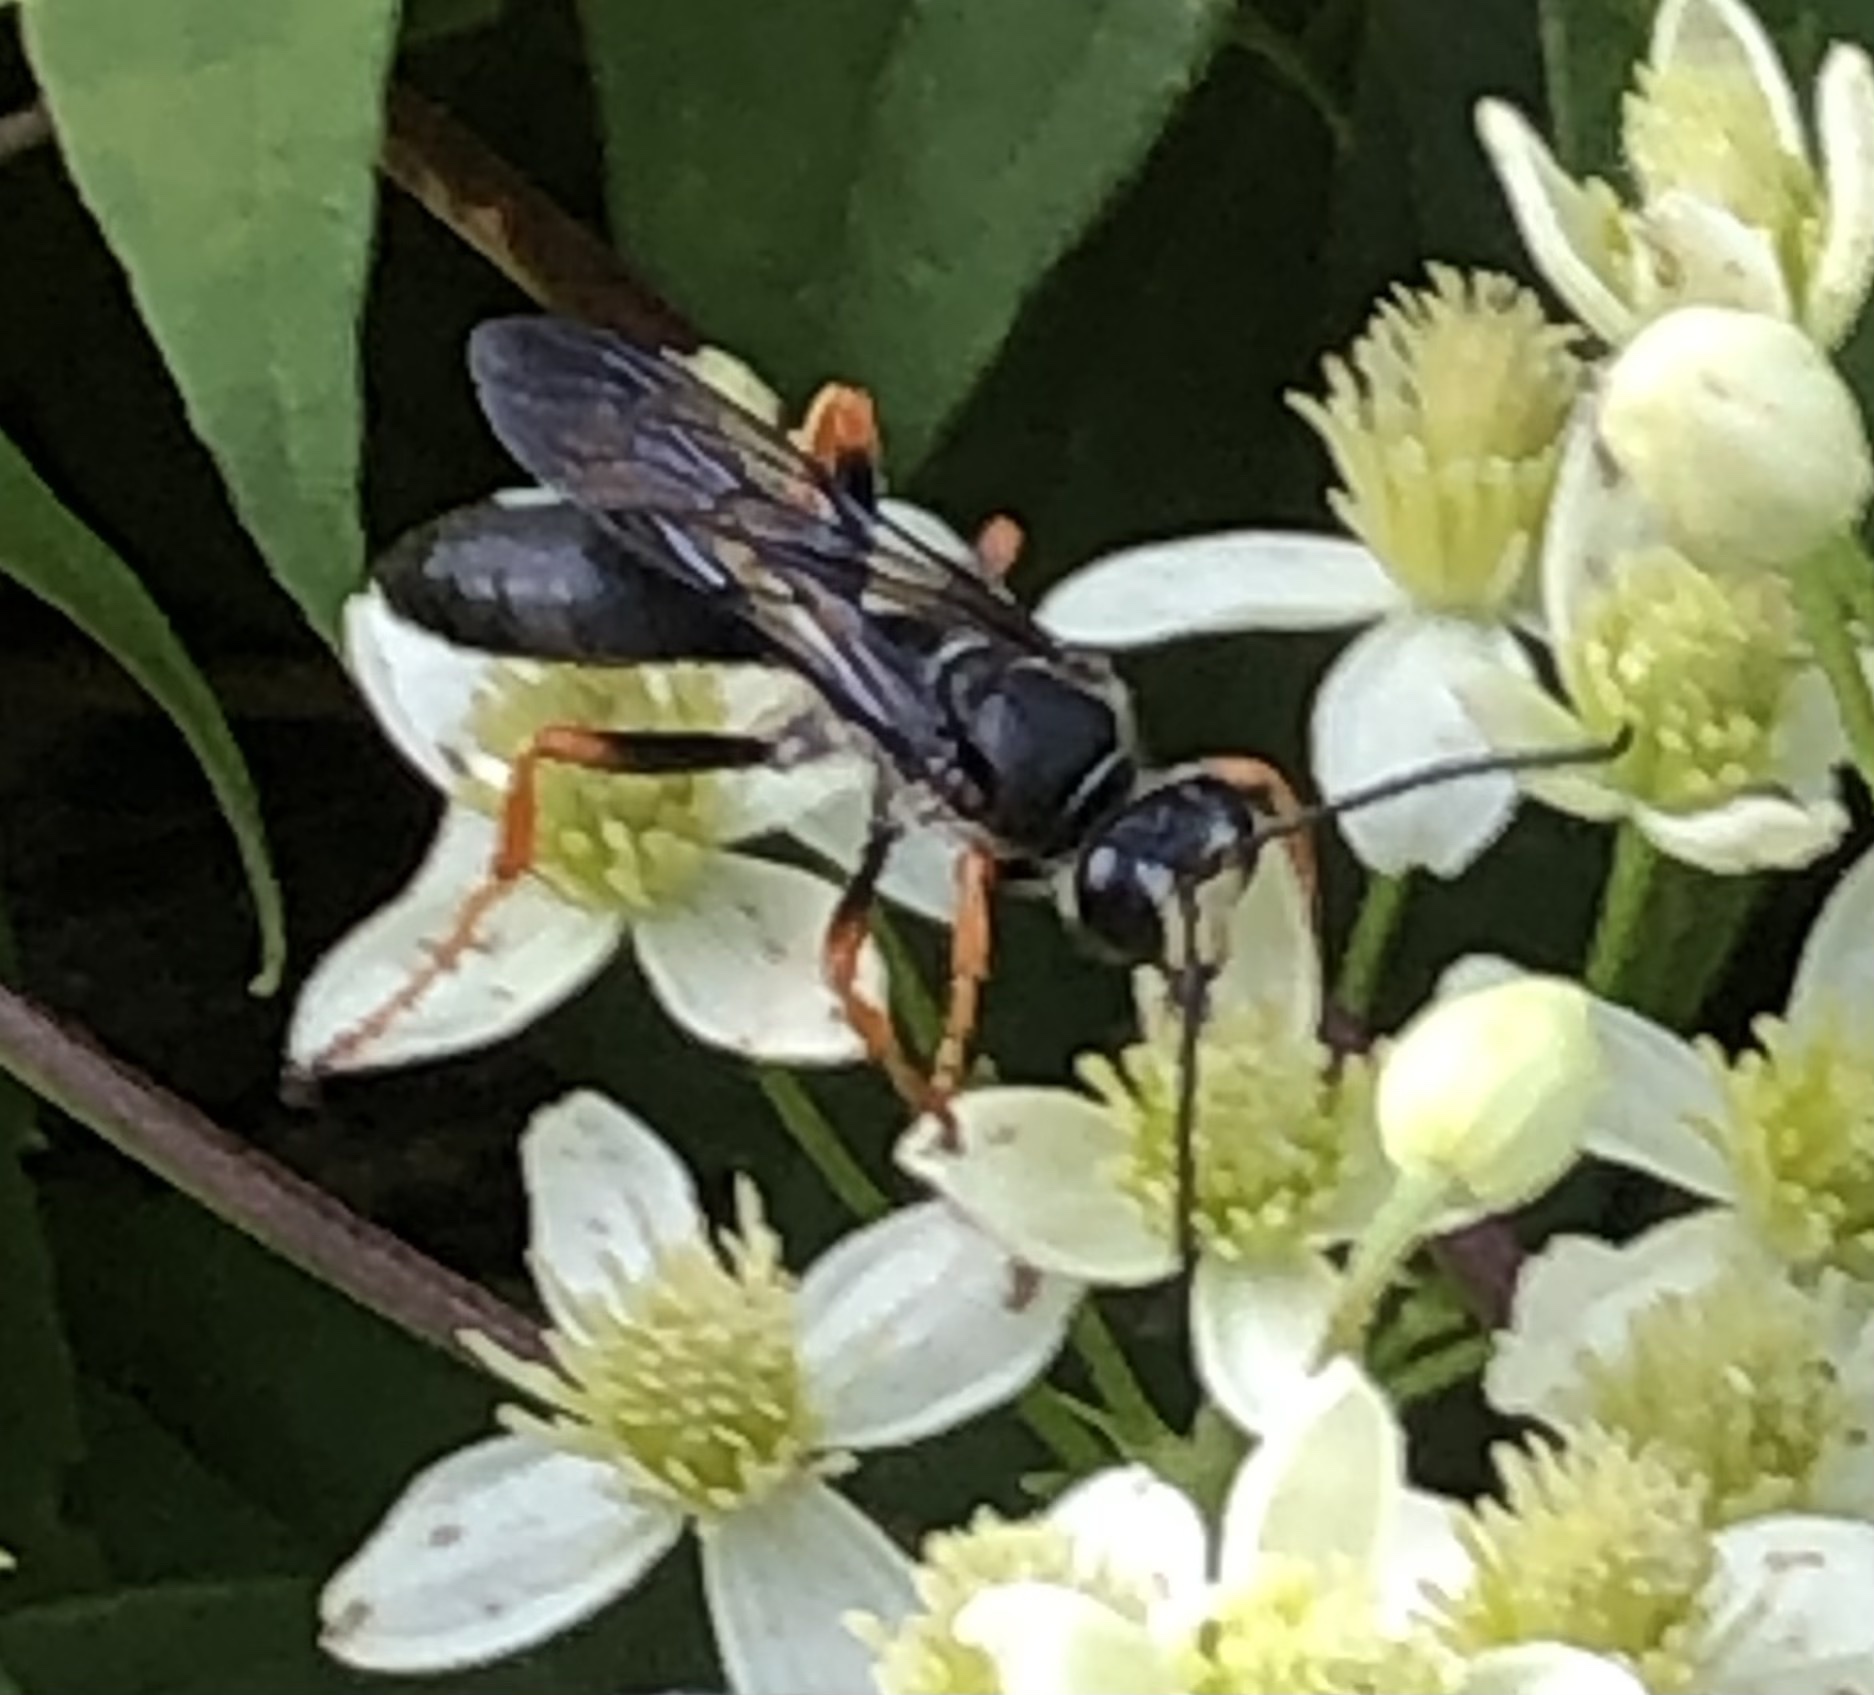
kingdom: Animalia
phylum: Arthropoda
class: Insecta
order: Hymenoptera
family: Sphecidae
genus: Sphex
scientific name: Sphex nudus
